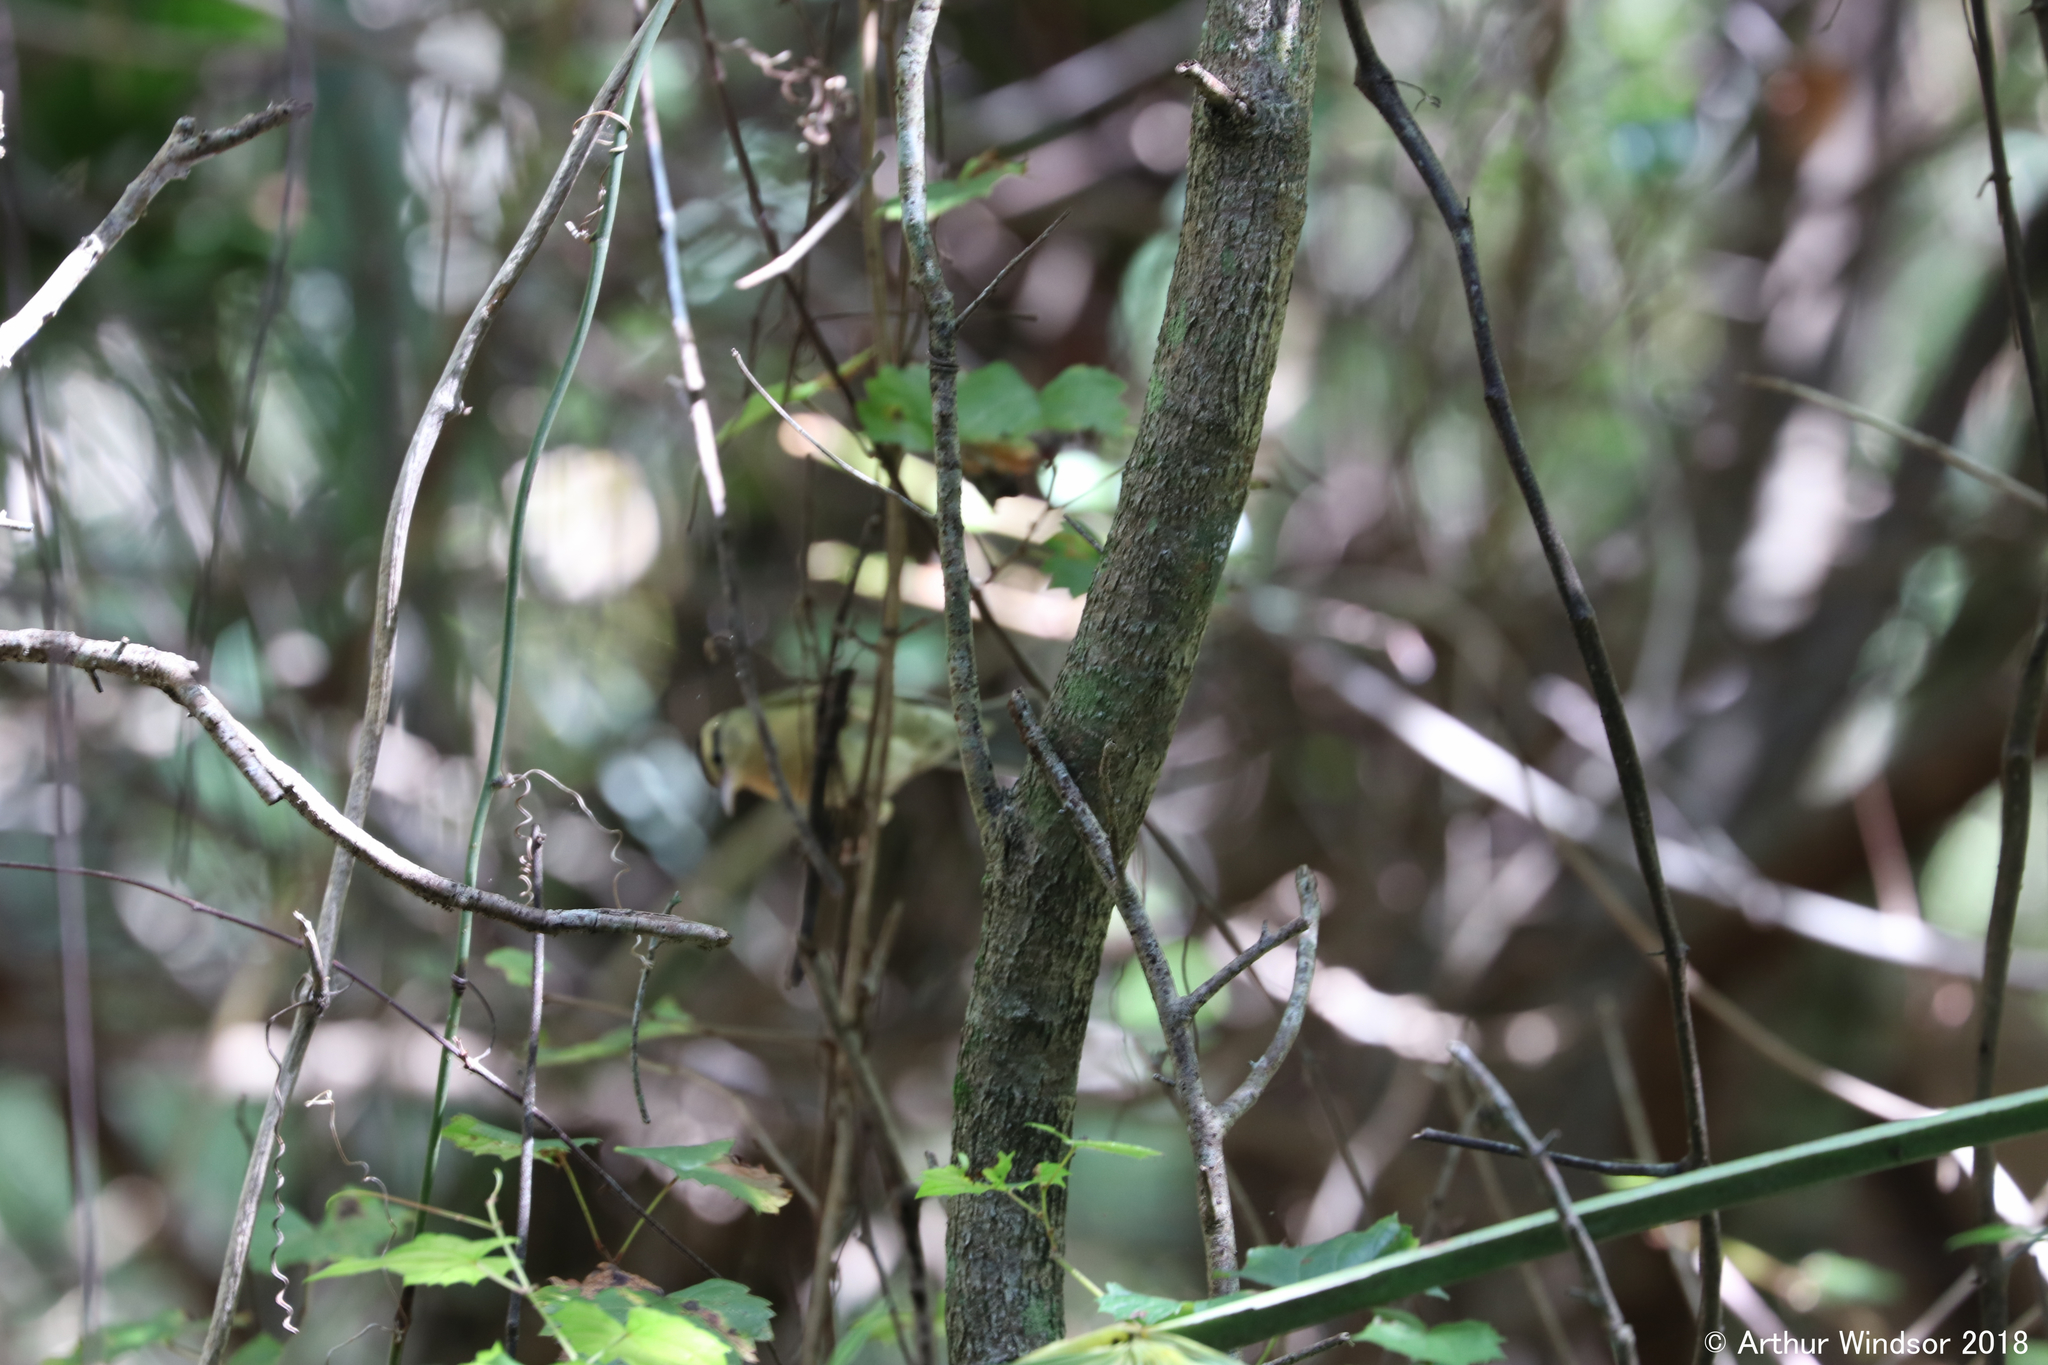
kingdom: Animalia
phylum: Chordata
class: Aves
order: Passeriformes
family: Parulidae
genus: Helmitheros
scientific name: Helmitheros vermivorum
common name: Worm-eating warbler
